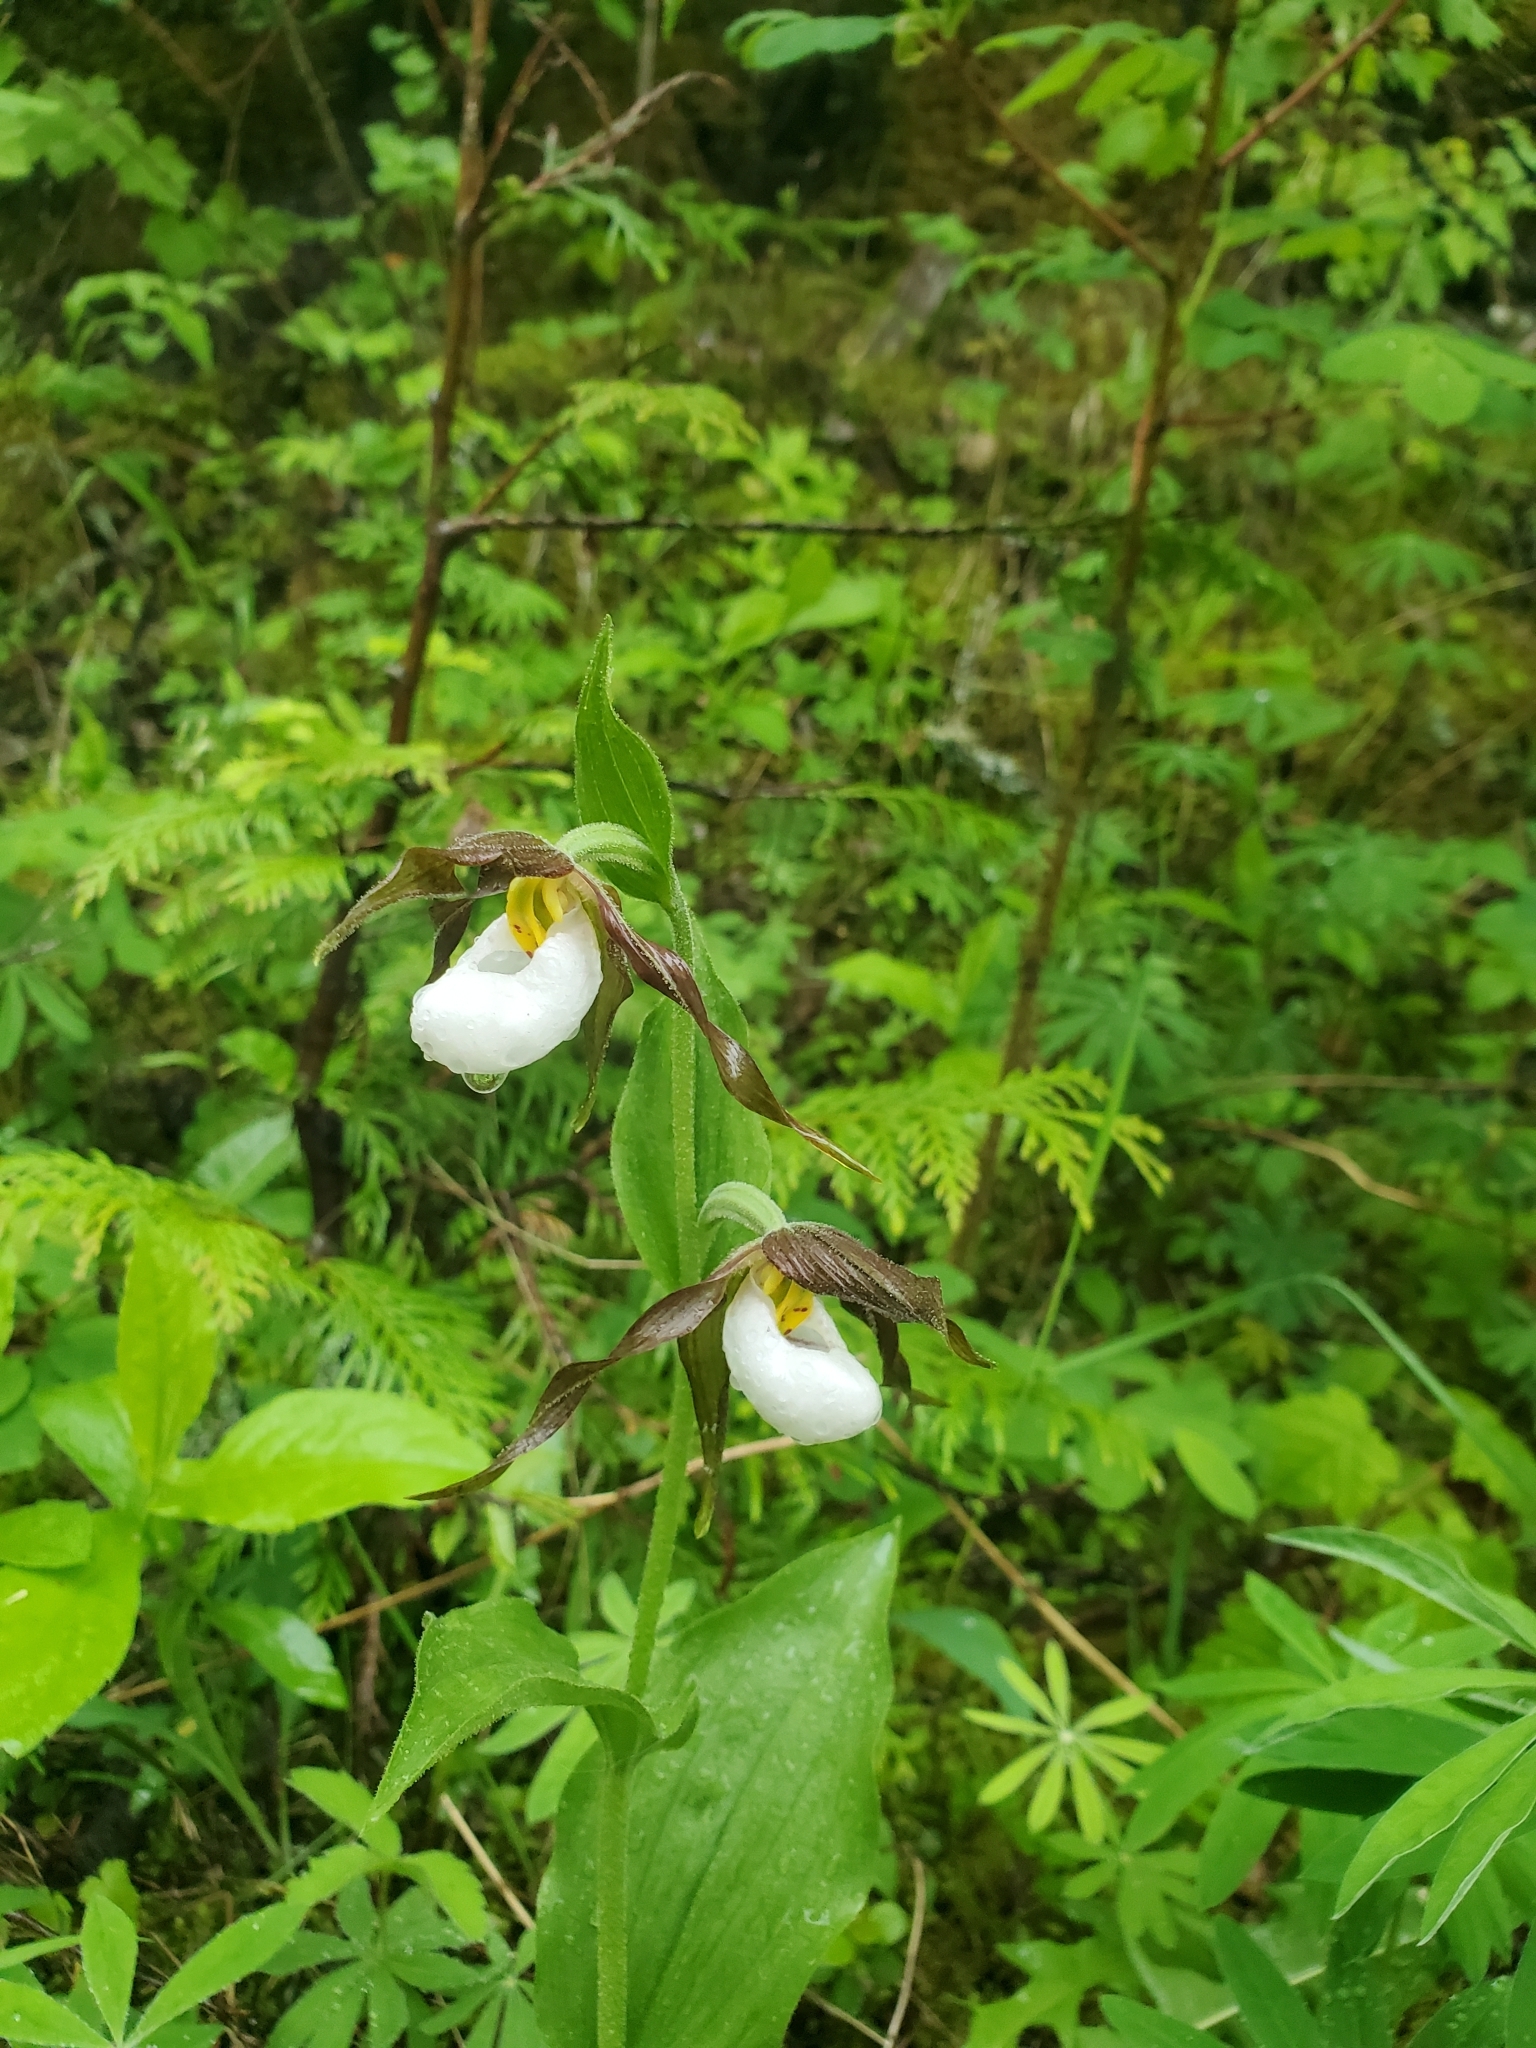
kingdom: Plantae
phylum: Tracheophyta
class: Liliopsida
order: Asparagales
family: Orchidaceae
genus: Cypripedium
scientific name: Cypripedium montanum
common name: Mountain lady's-slipper
